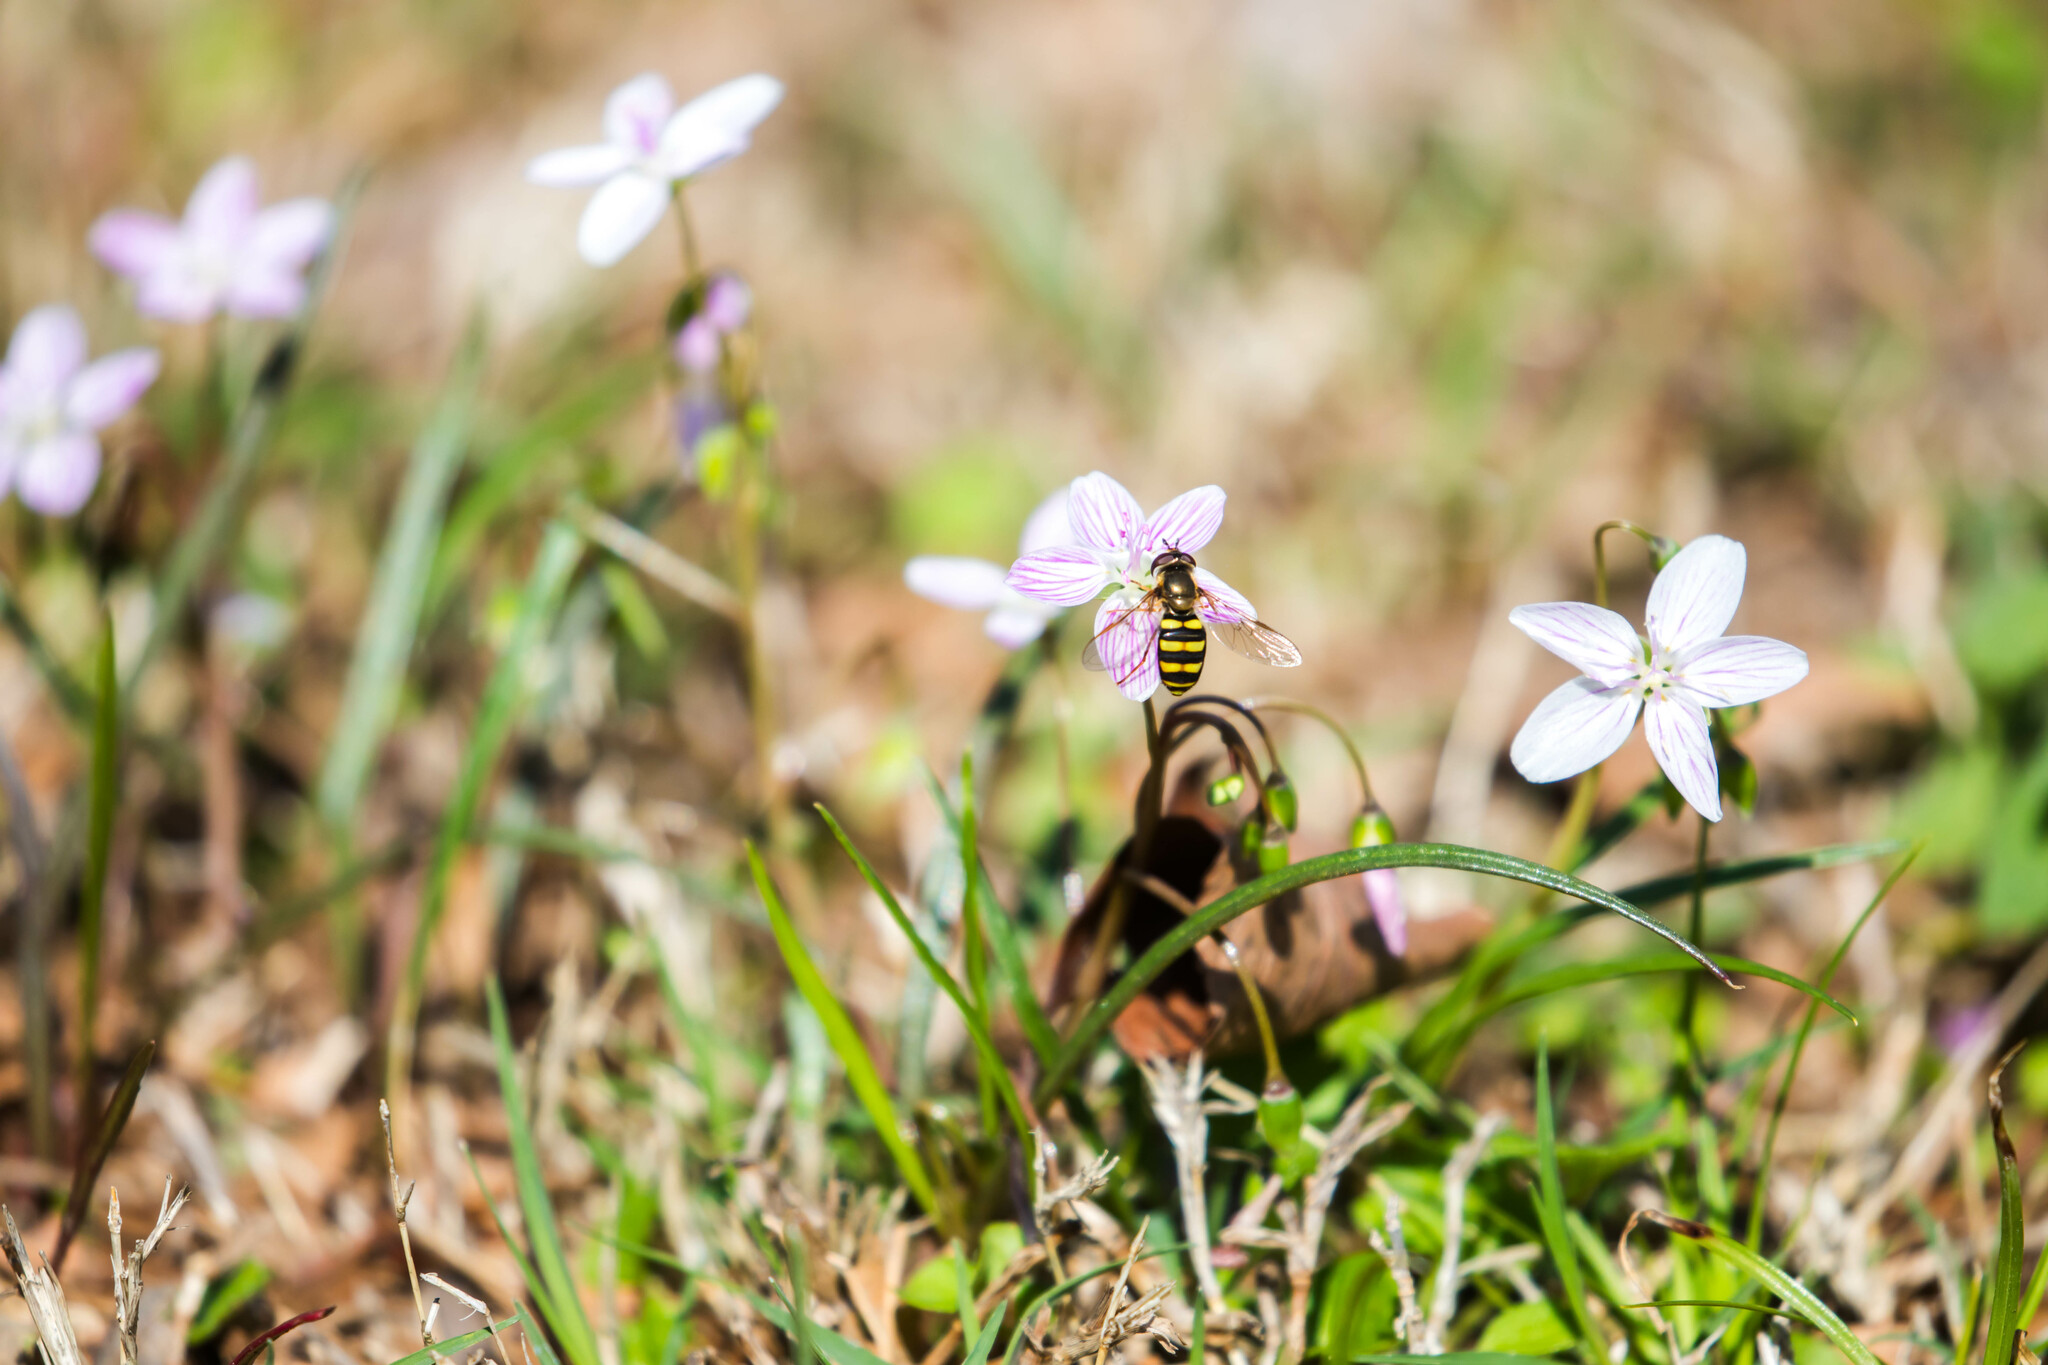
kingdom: Animalia
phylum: Arthropoda
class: Insecta
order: Diptera
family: Syrphidae
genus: Eupeodes
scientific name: Eupeodes
